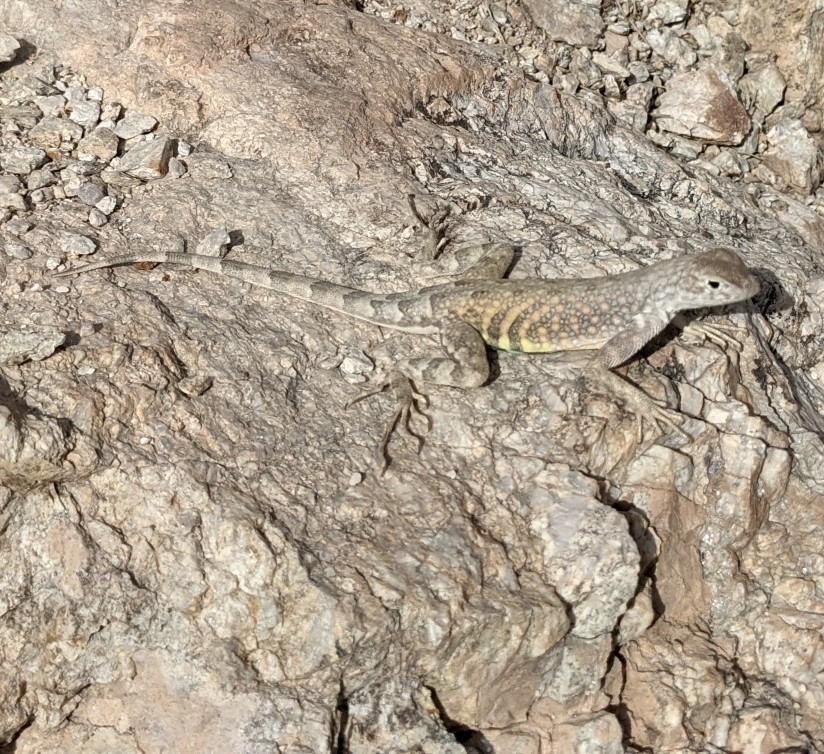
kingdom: Animalia
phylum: Chordata
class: Squamata
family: Phrynosomatidae
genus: Cophosaurus
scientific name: Cophosaurus texanus
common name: Greater earless lizard
